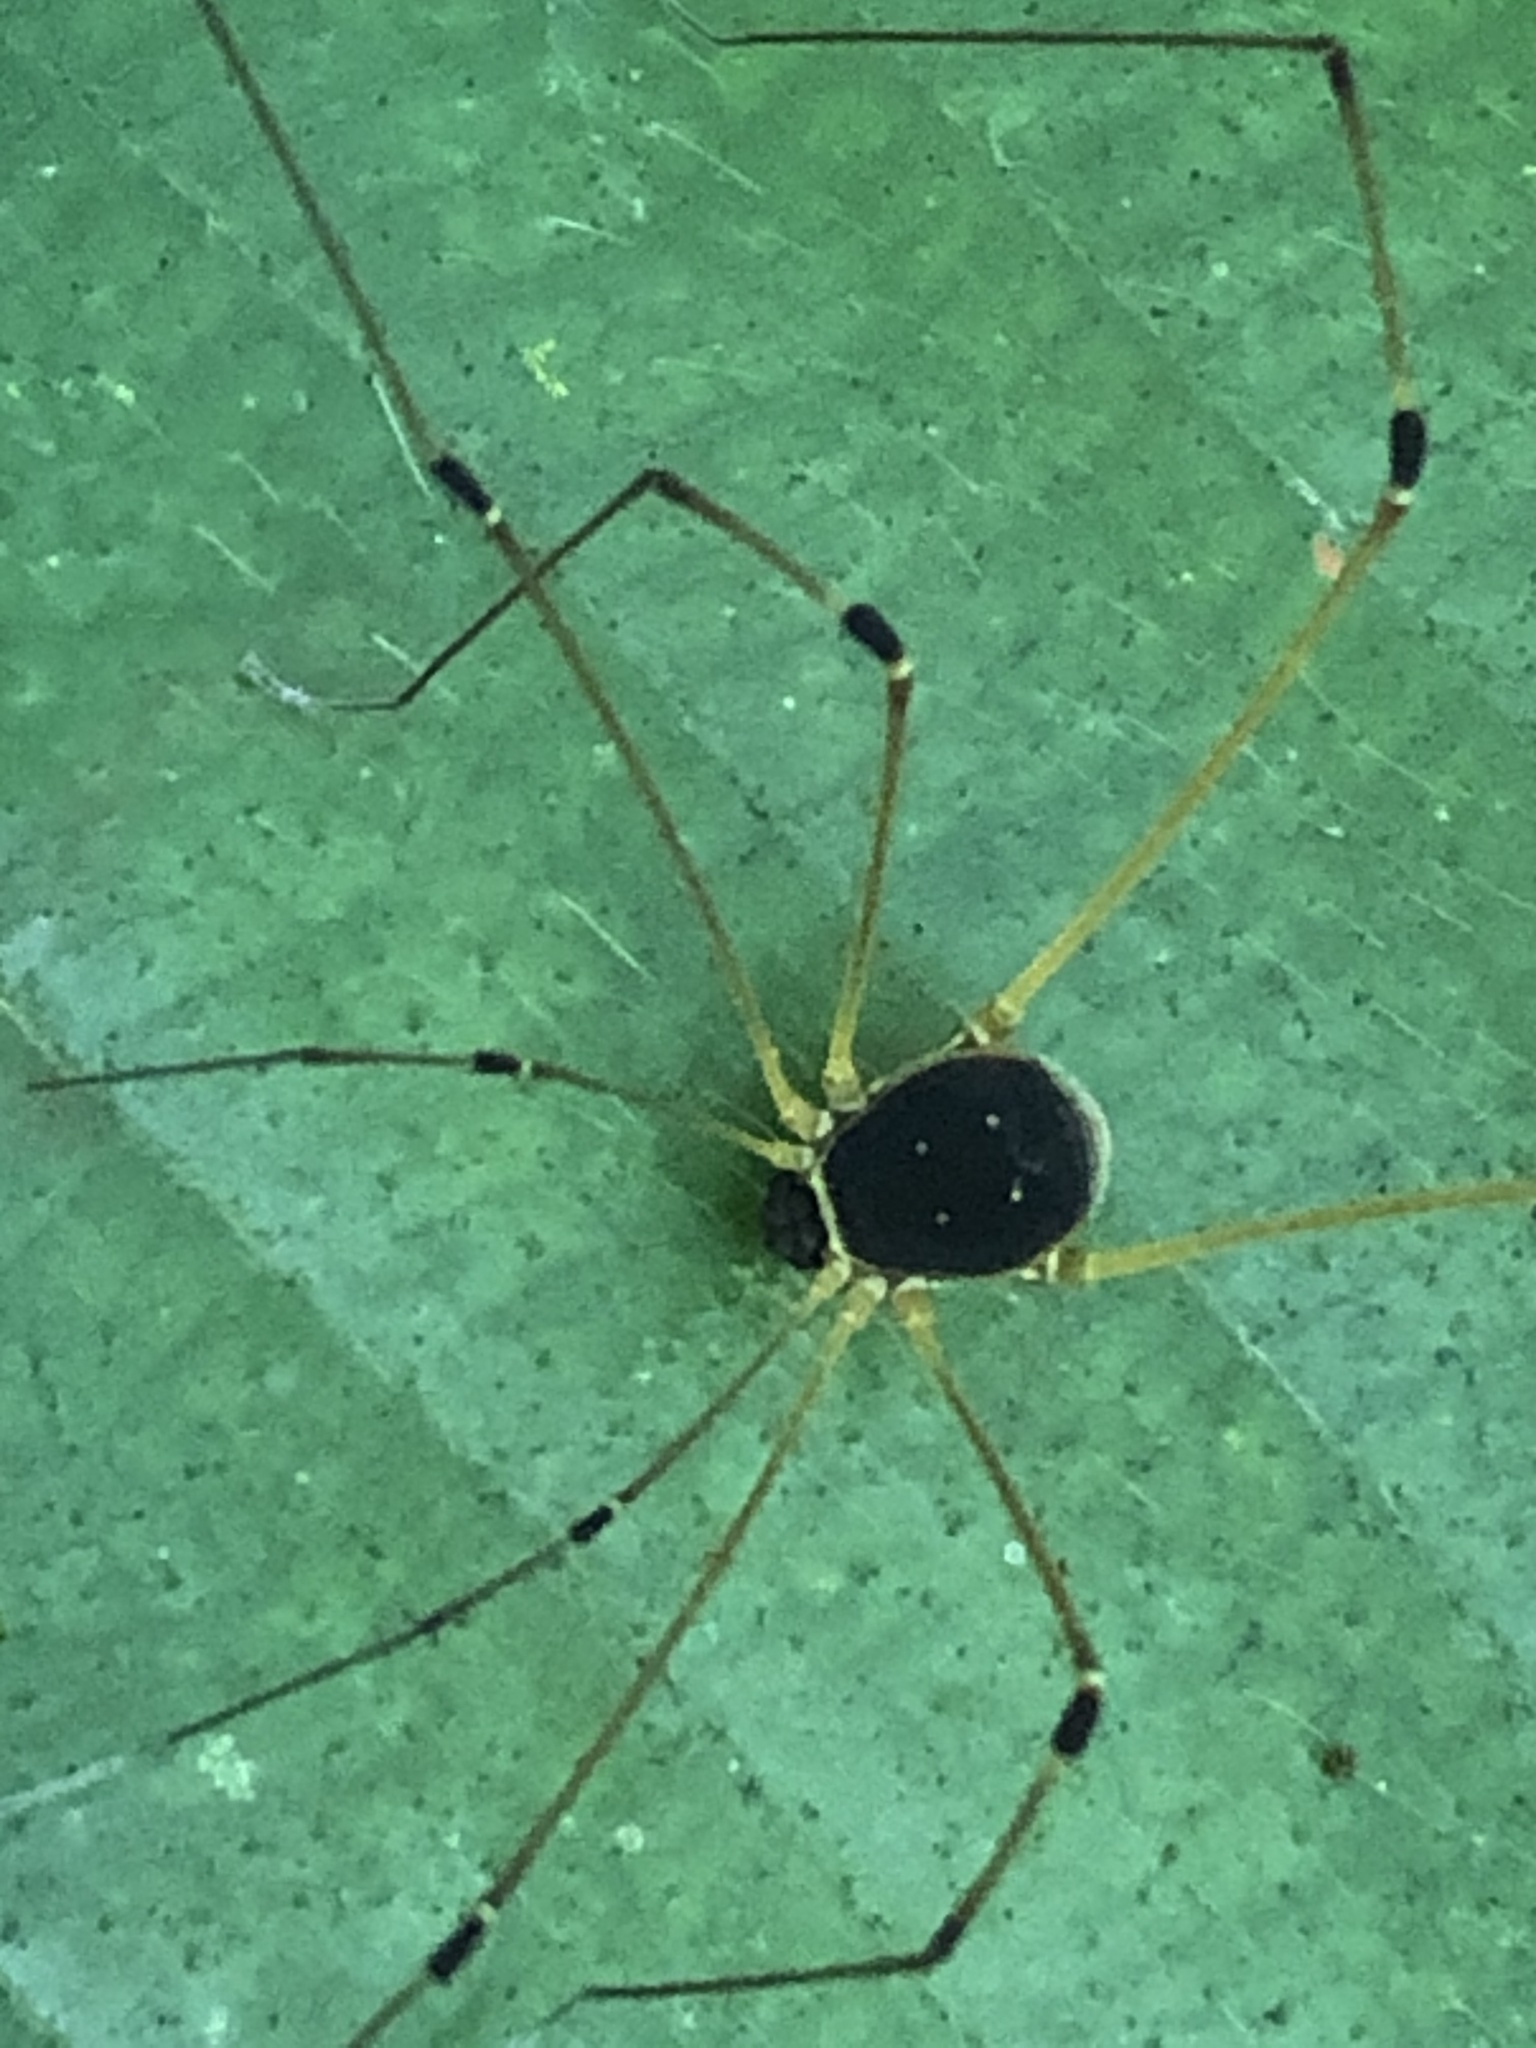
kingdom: Animalia
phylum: Arthropoda
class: Arachnida
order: Opiliones
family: Cosmetidae
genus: Protus
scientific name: Protus bolivari
